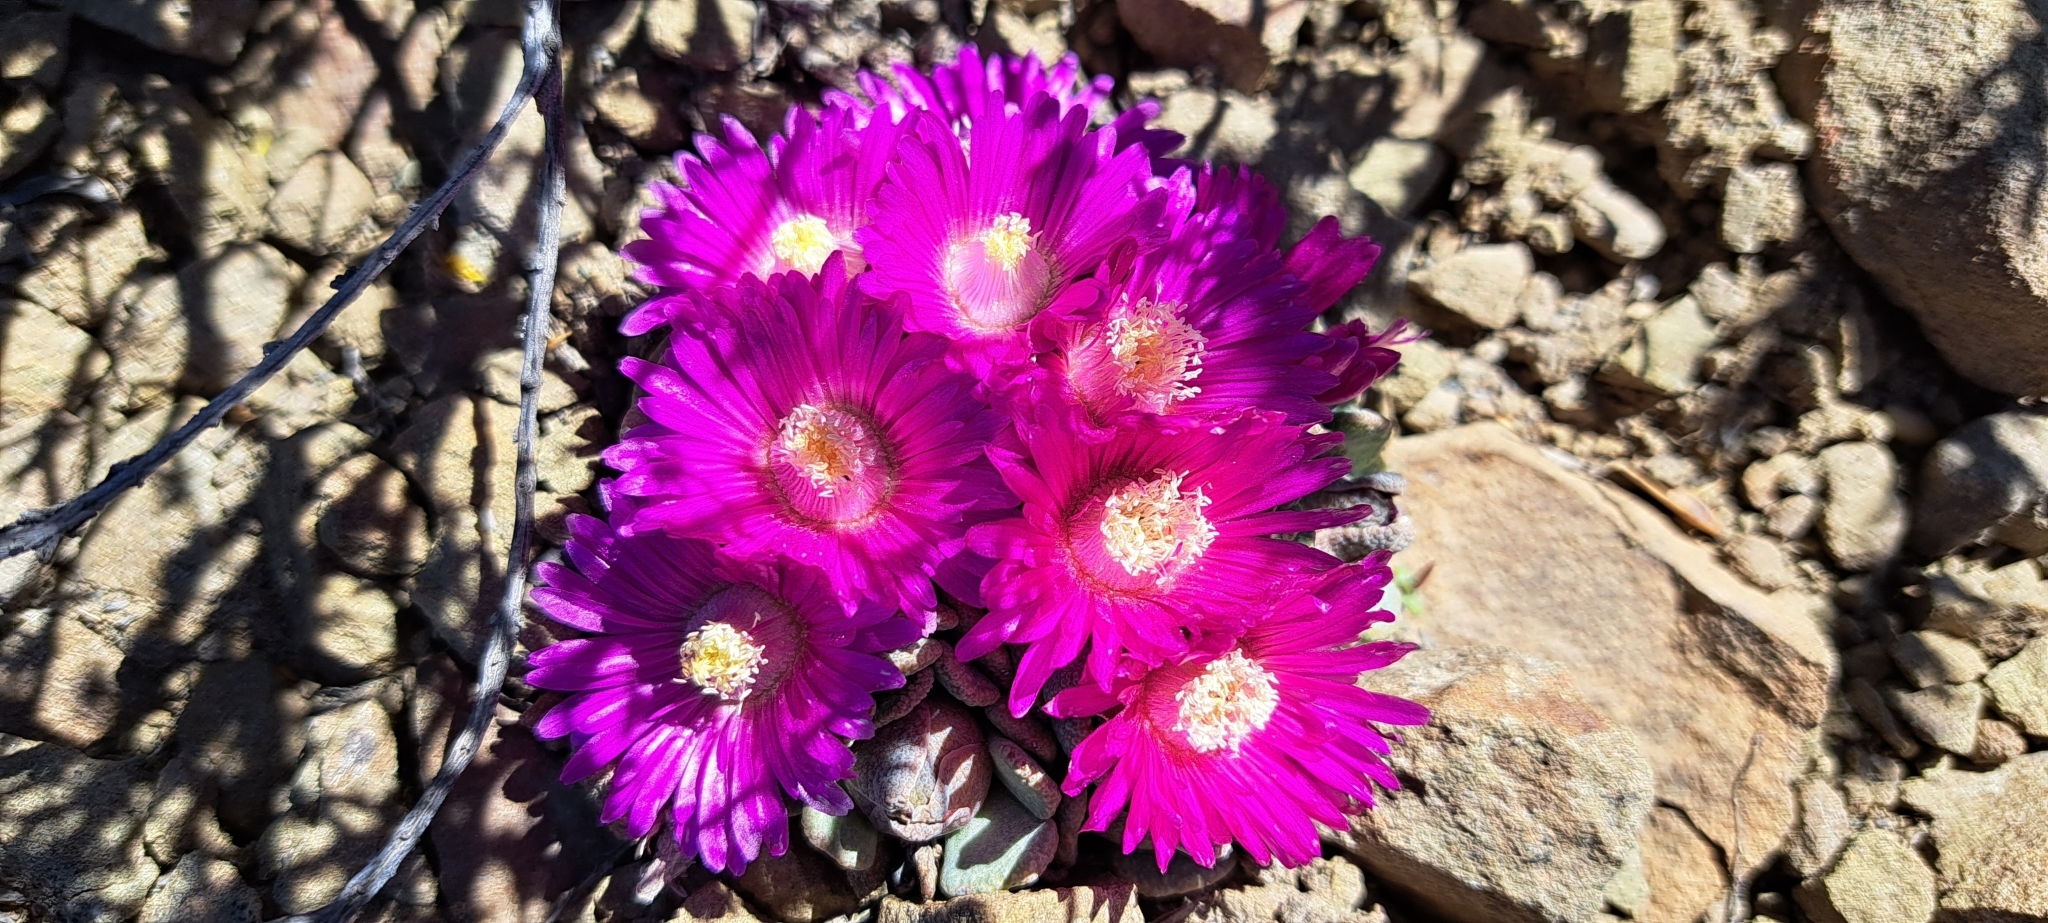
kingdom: Plantae
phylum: Tracheophyta
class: Magnoliopsida
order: Caryophyllales
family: Aizoaceae
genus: Aloinopsis
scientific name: Aloinopsis spathulata
